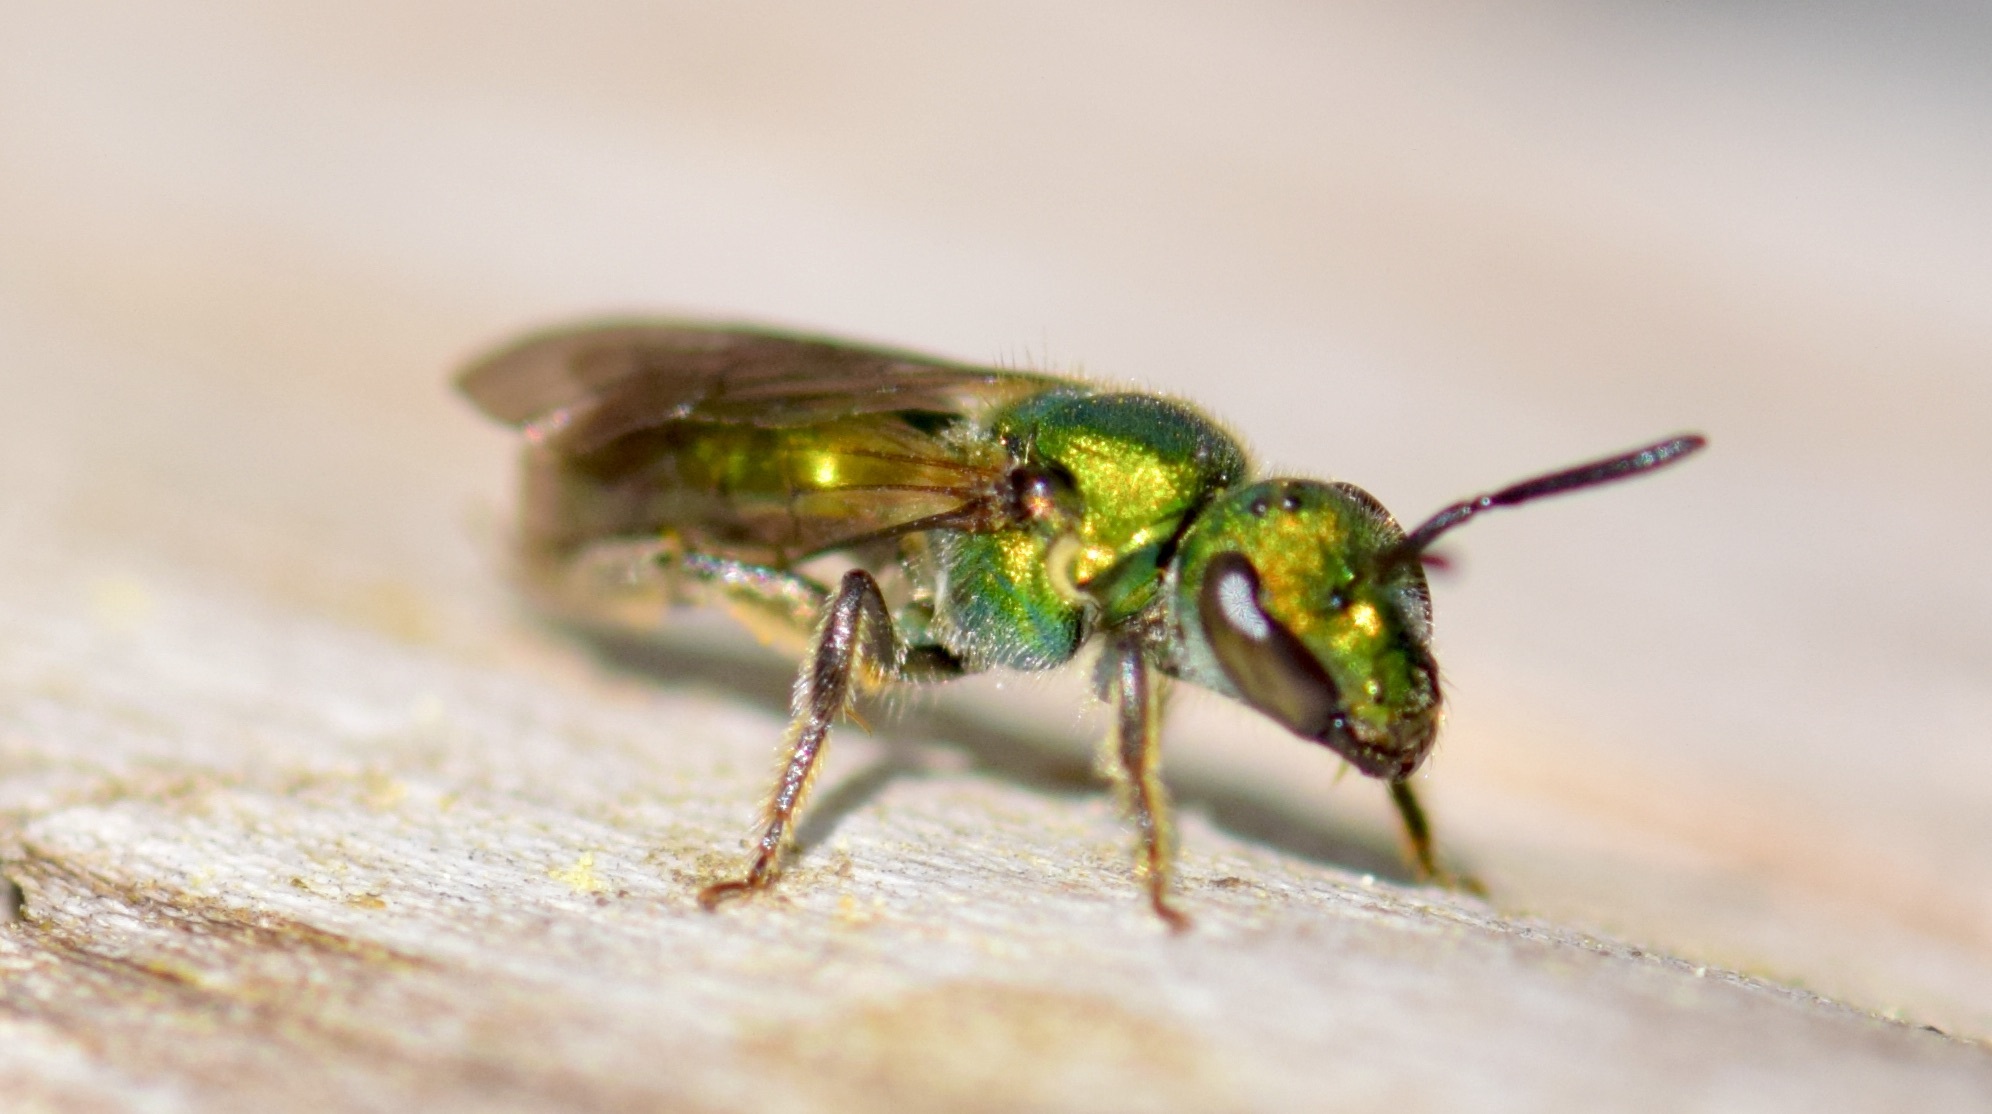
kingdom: Animalia
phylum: Arthropoda
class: Insecta
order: Hymenoptera
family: Halictidae
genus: Augochlora
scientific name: Augochlora pura
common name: Pure green sweat bee
